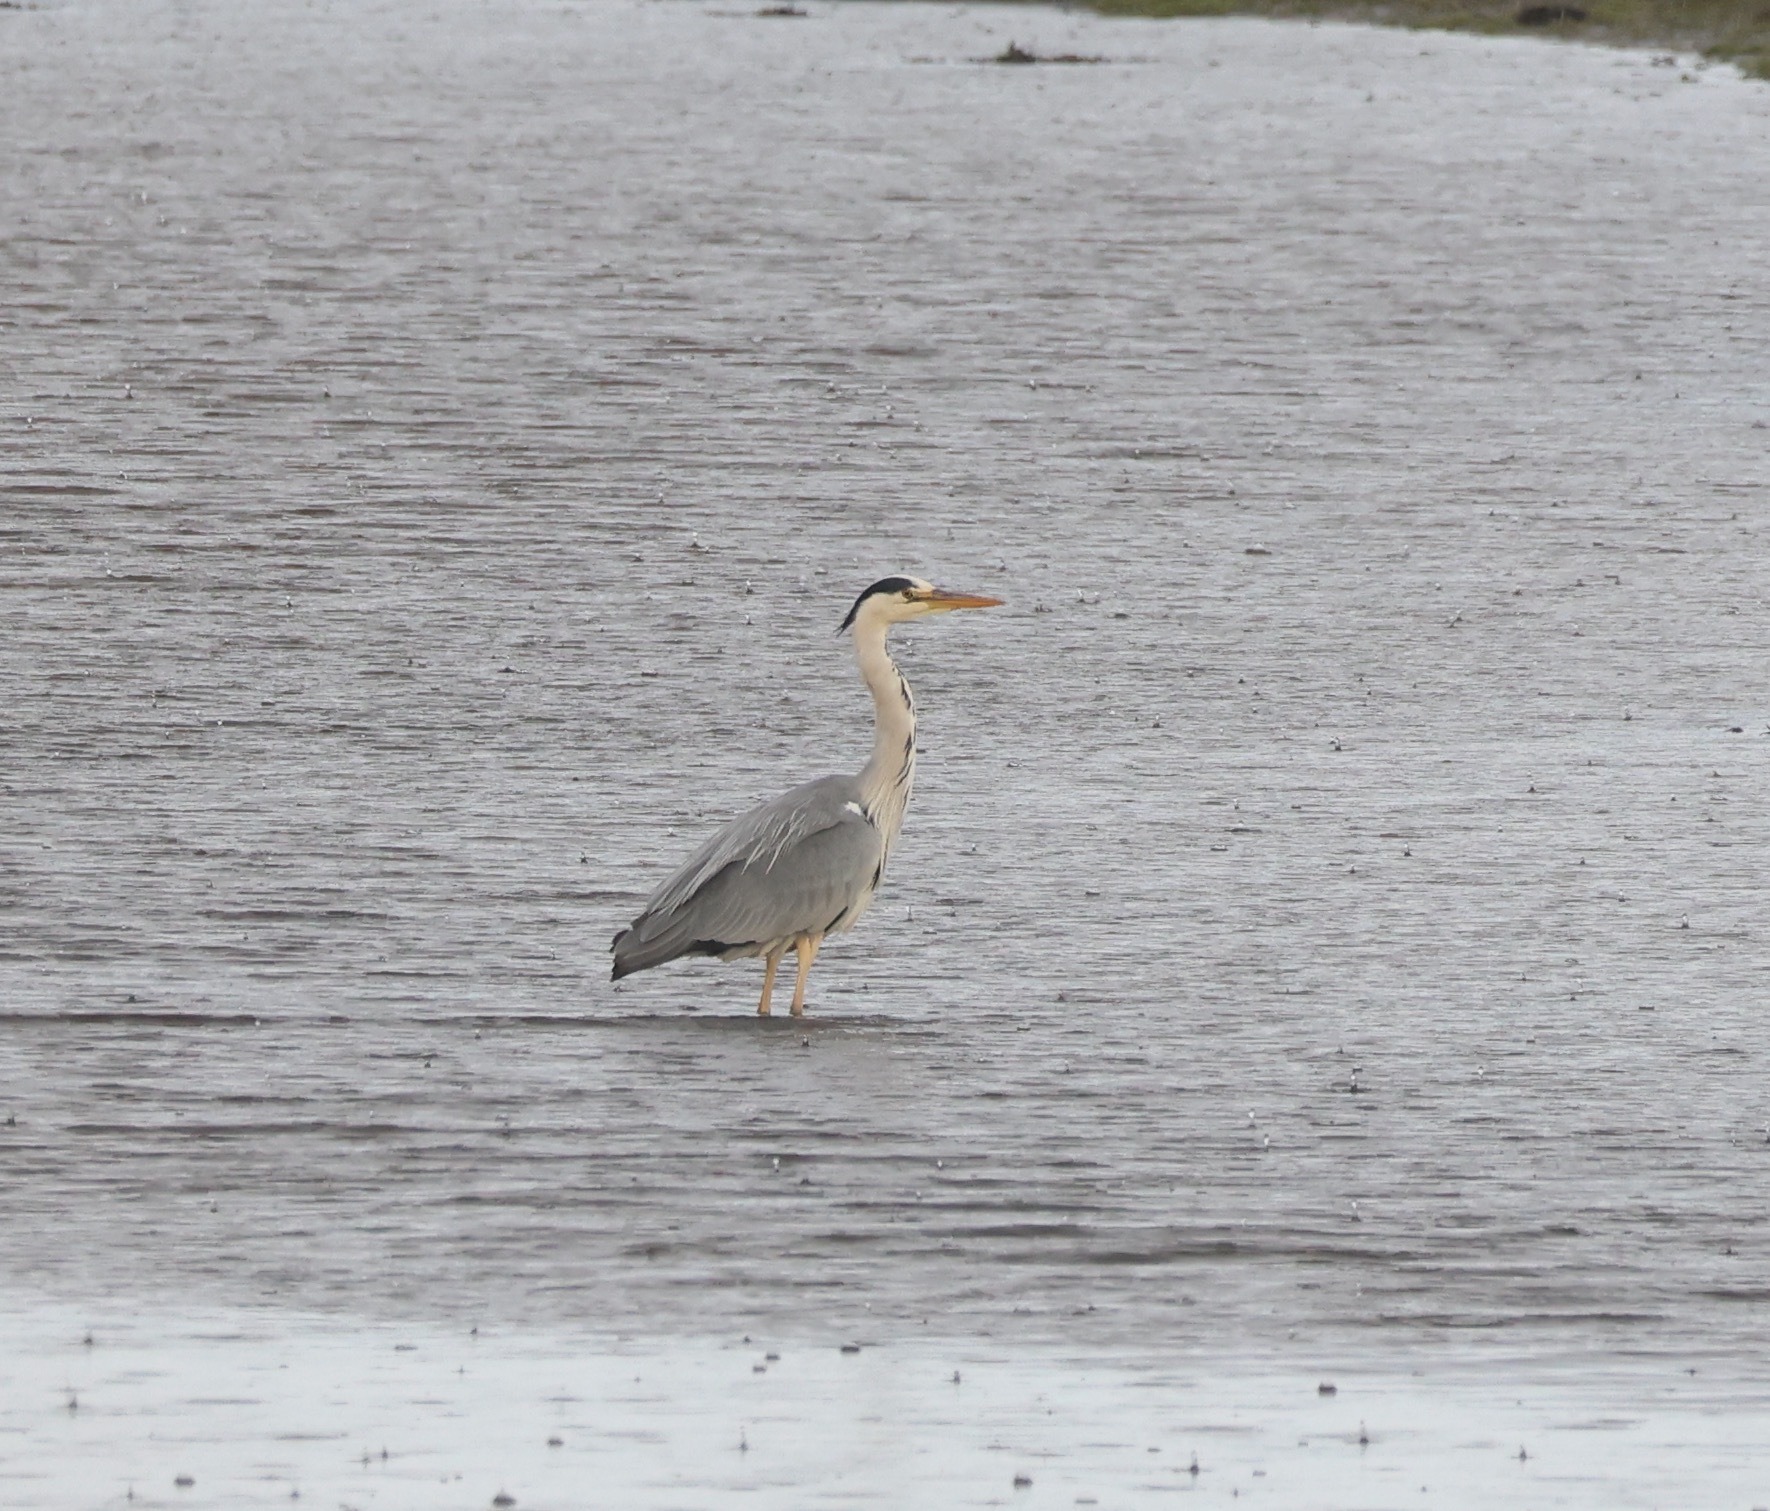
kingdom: Animalia
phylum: Chordata
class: Aves
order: Pelecaniformes
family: Ardeidae
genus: Ardea
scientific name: Ardea cinerea
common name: Grey heron
